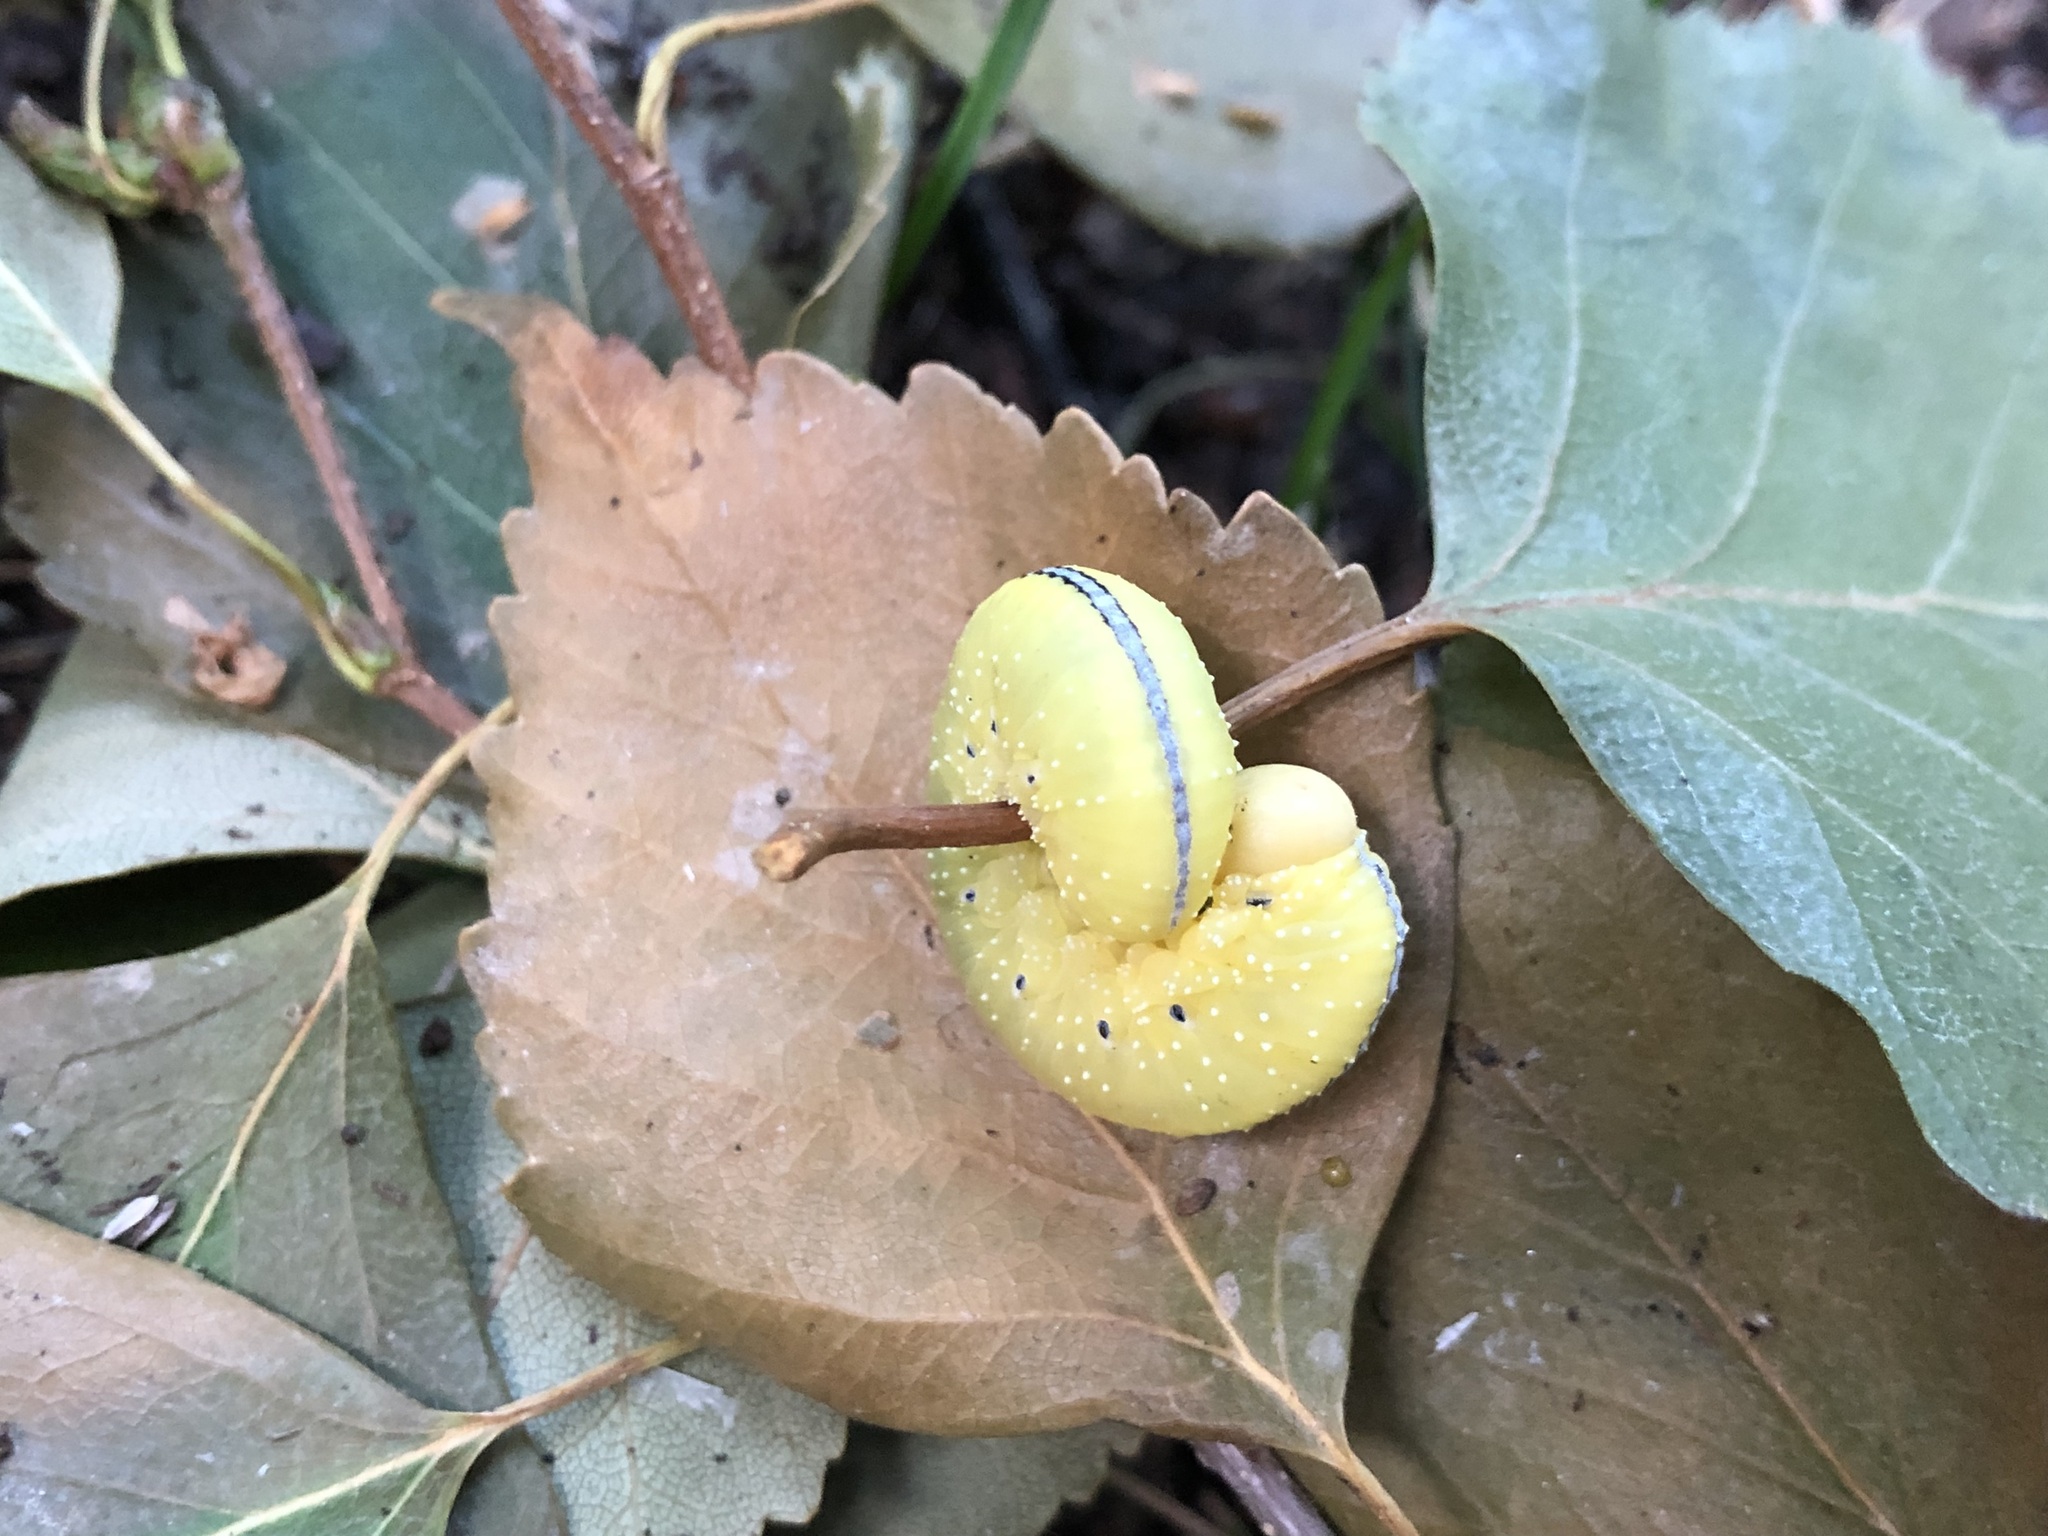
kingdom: Animalia
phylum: Arthropoda
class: Insecta
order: Hymenoptera
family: Cimbicidae
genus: Cimbex
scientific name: Cimbex americana
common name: Elm sawfly
